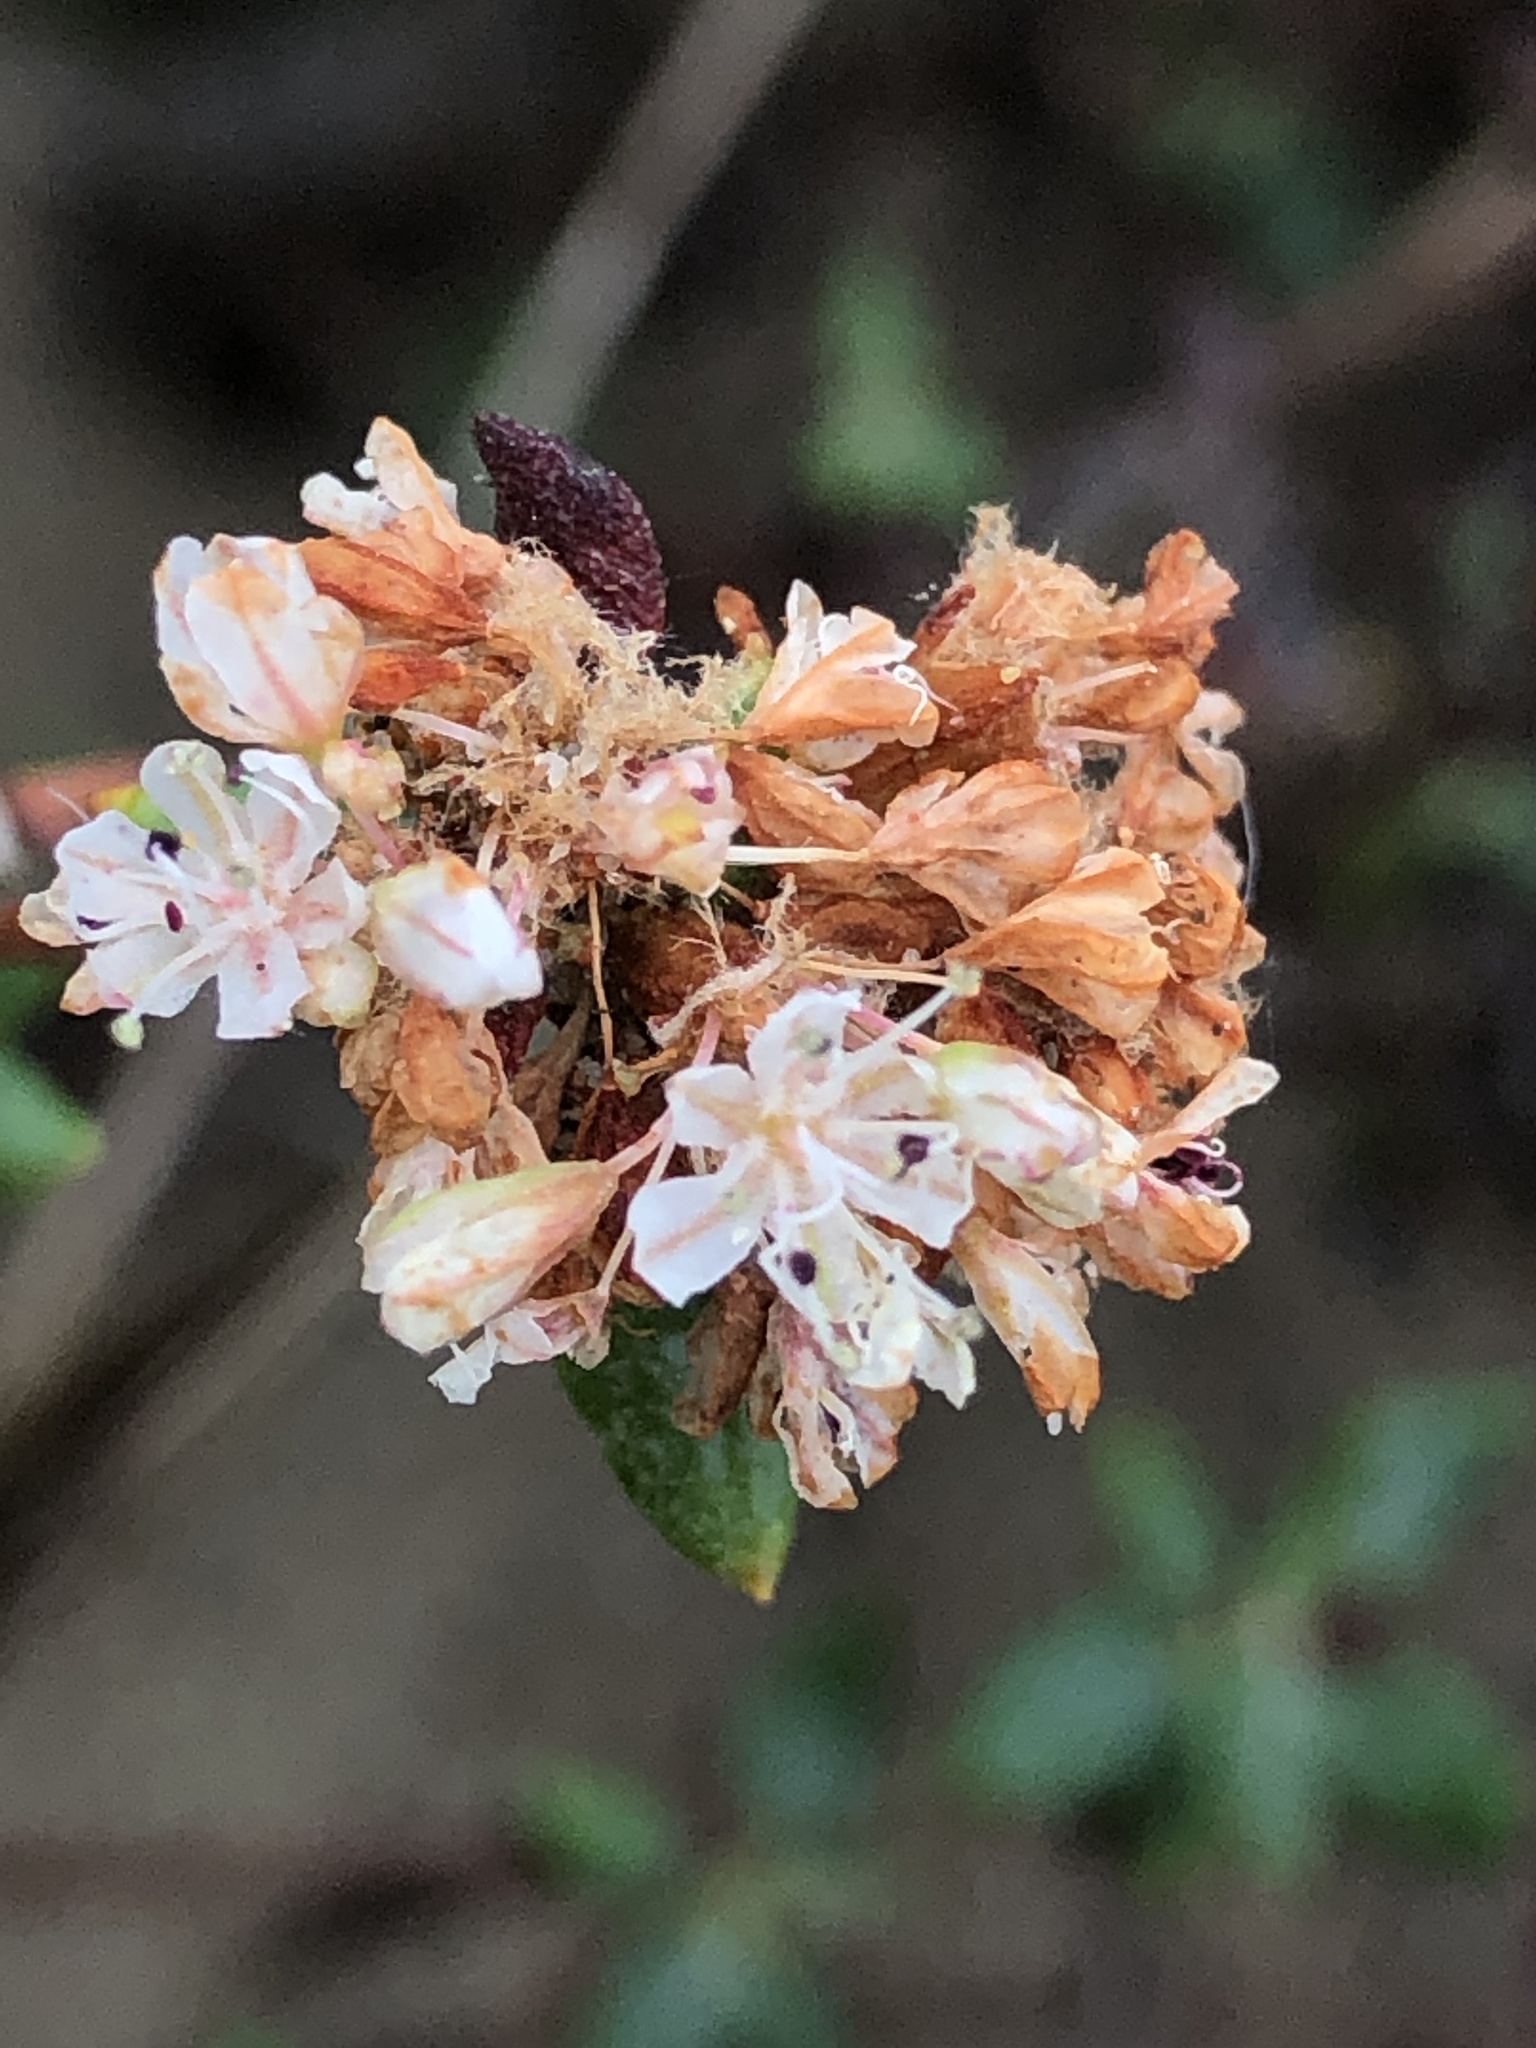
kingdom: Plantae
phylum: Tracheophyta
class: Magnoliopsida
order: Caryophyllales
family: Polygonaceae
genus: Eriogonum
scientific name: Eriogonum parvifolium
